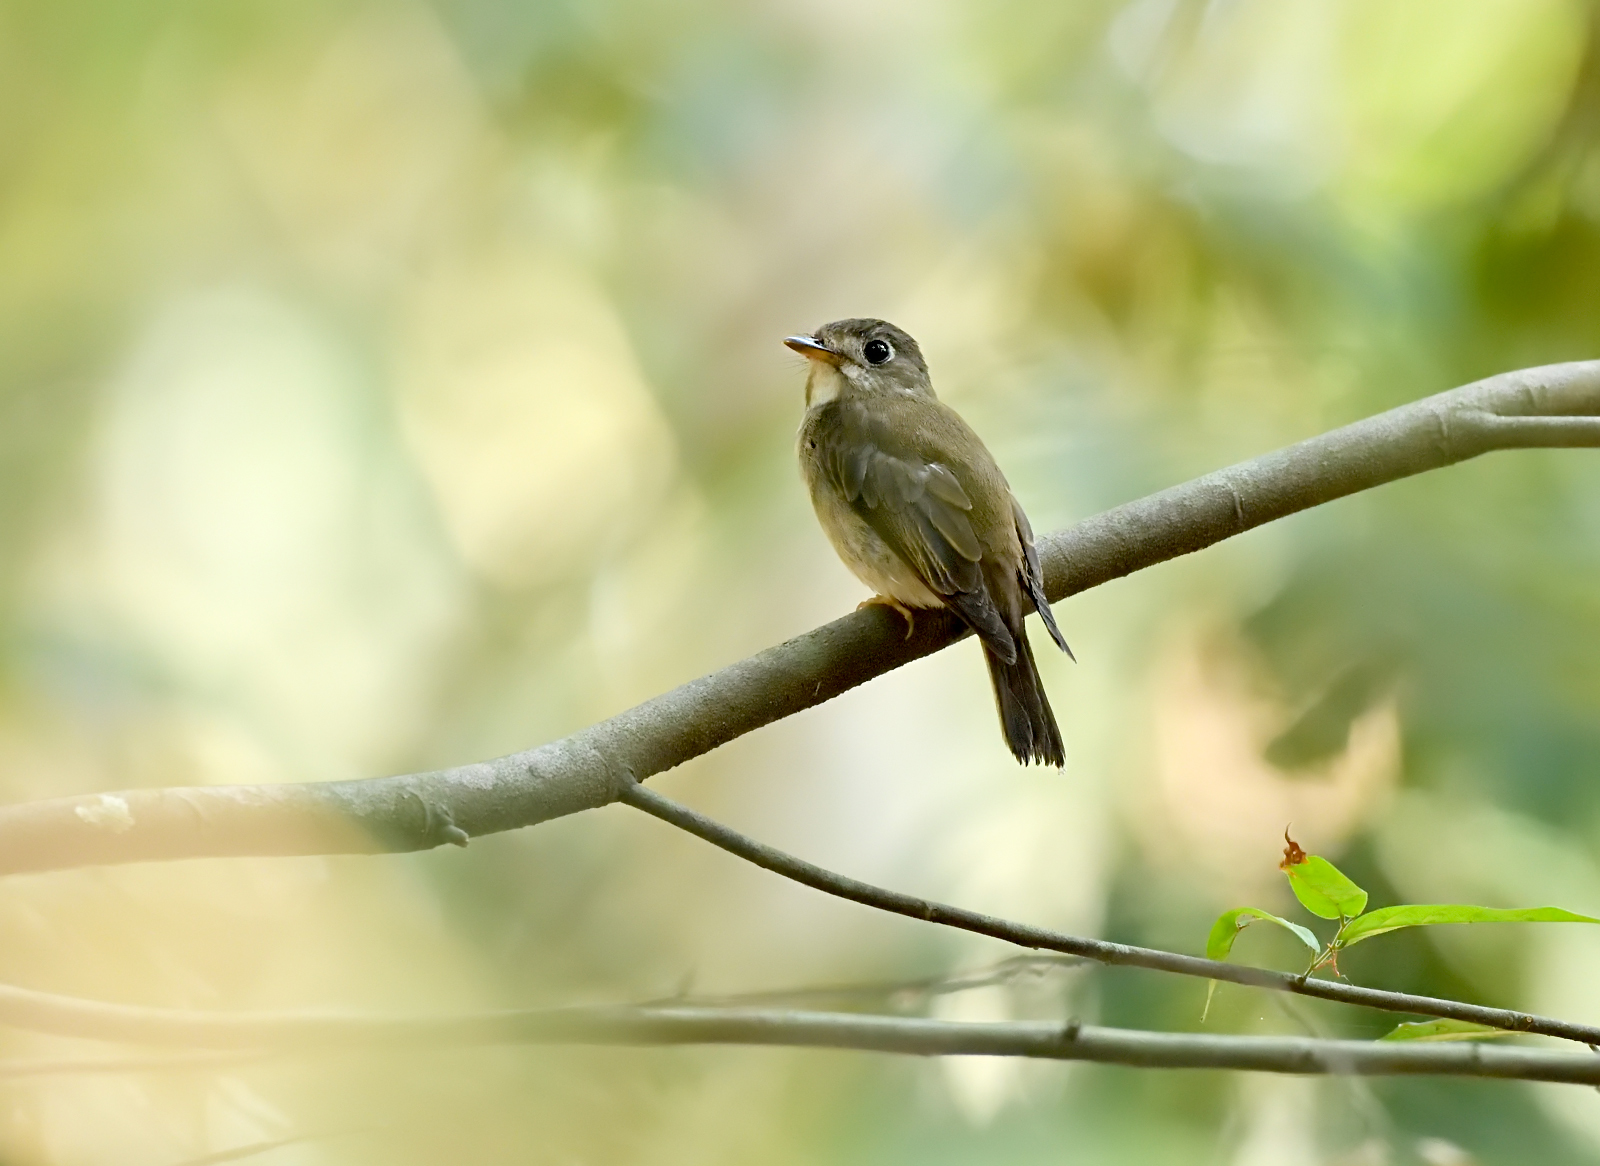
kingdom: Animalia
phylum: Chordata
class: Aves
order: Passeriformes
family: Muscicapidae
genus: Muscicapa
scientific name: Muscicapa muttui
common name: Brown-breasted flycatcher
